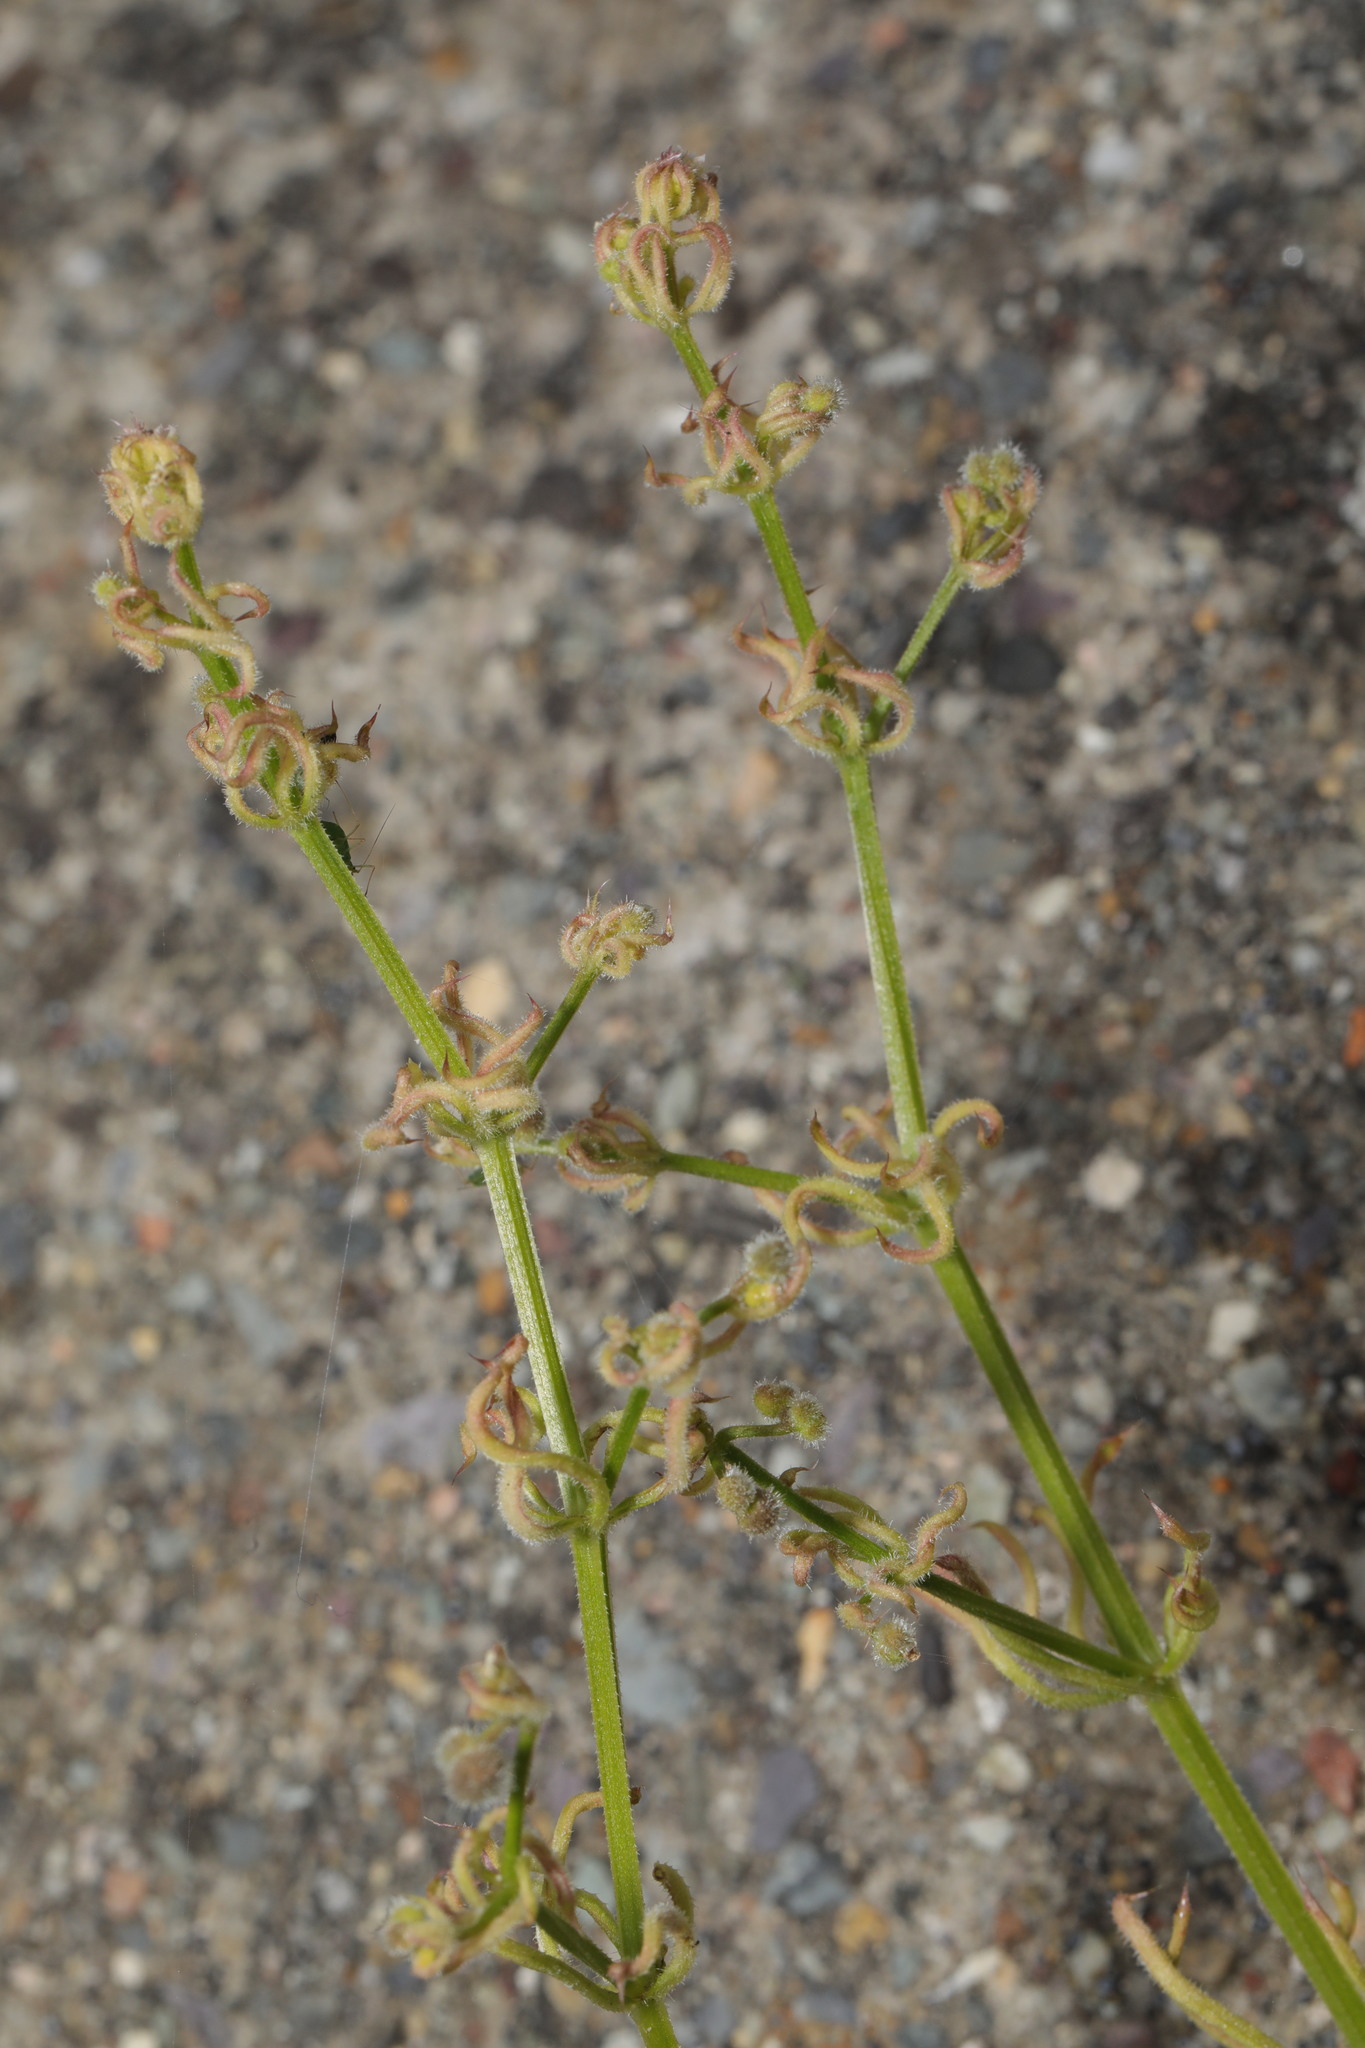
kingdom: Animalia
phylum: Arthropoda
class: Arachnida
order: Trombidiformes
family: Eriophyidae
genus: Cecidophyes
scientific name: Cecidophyes rouhollahi
